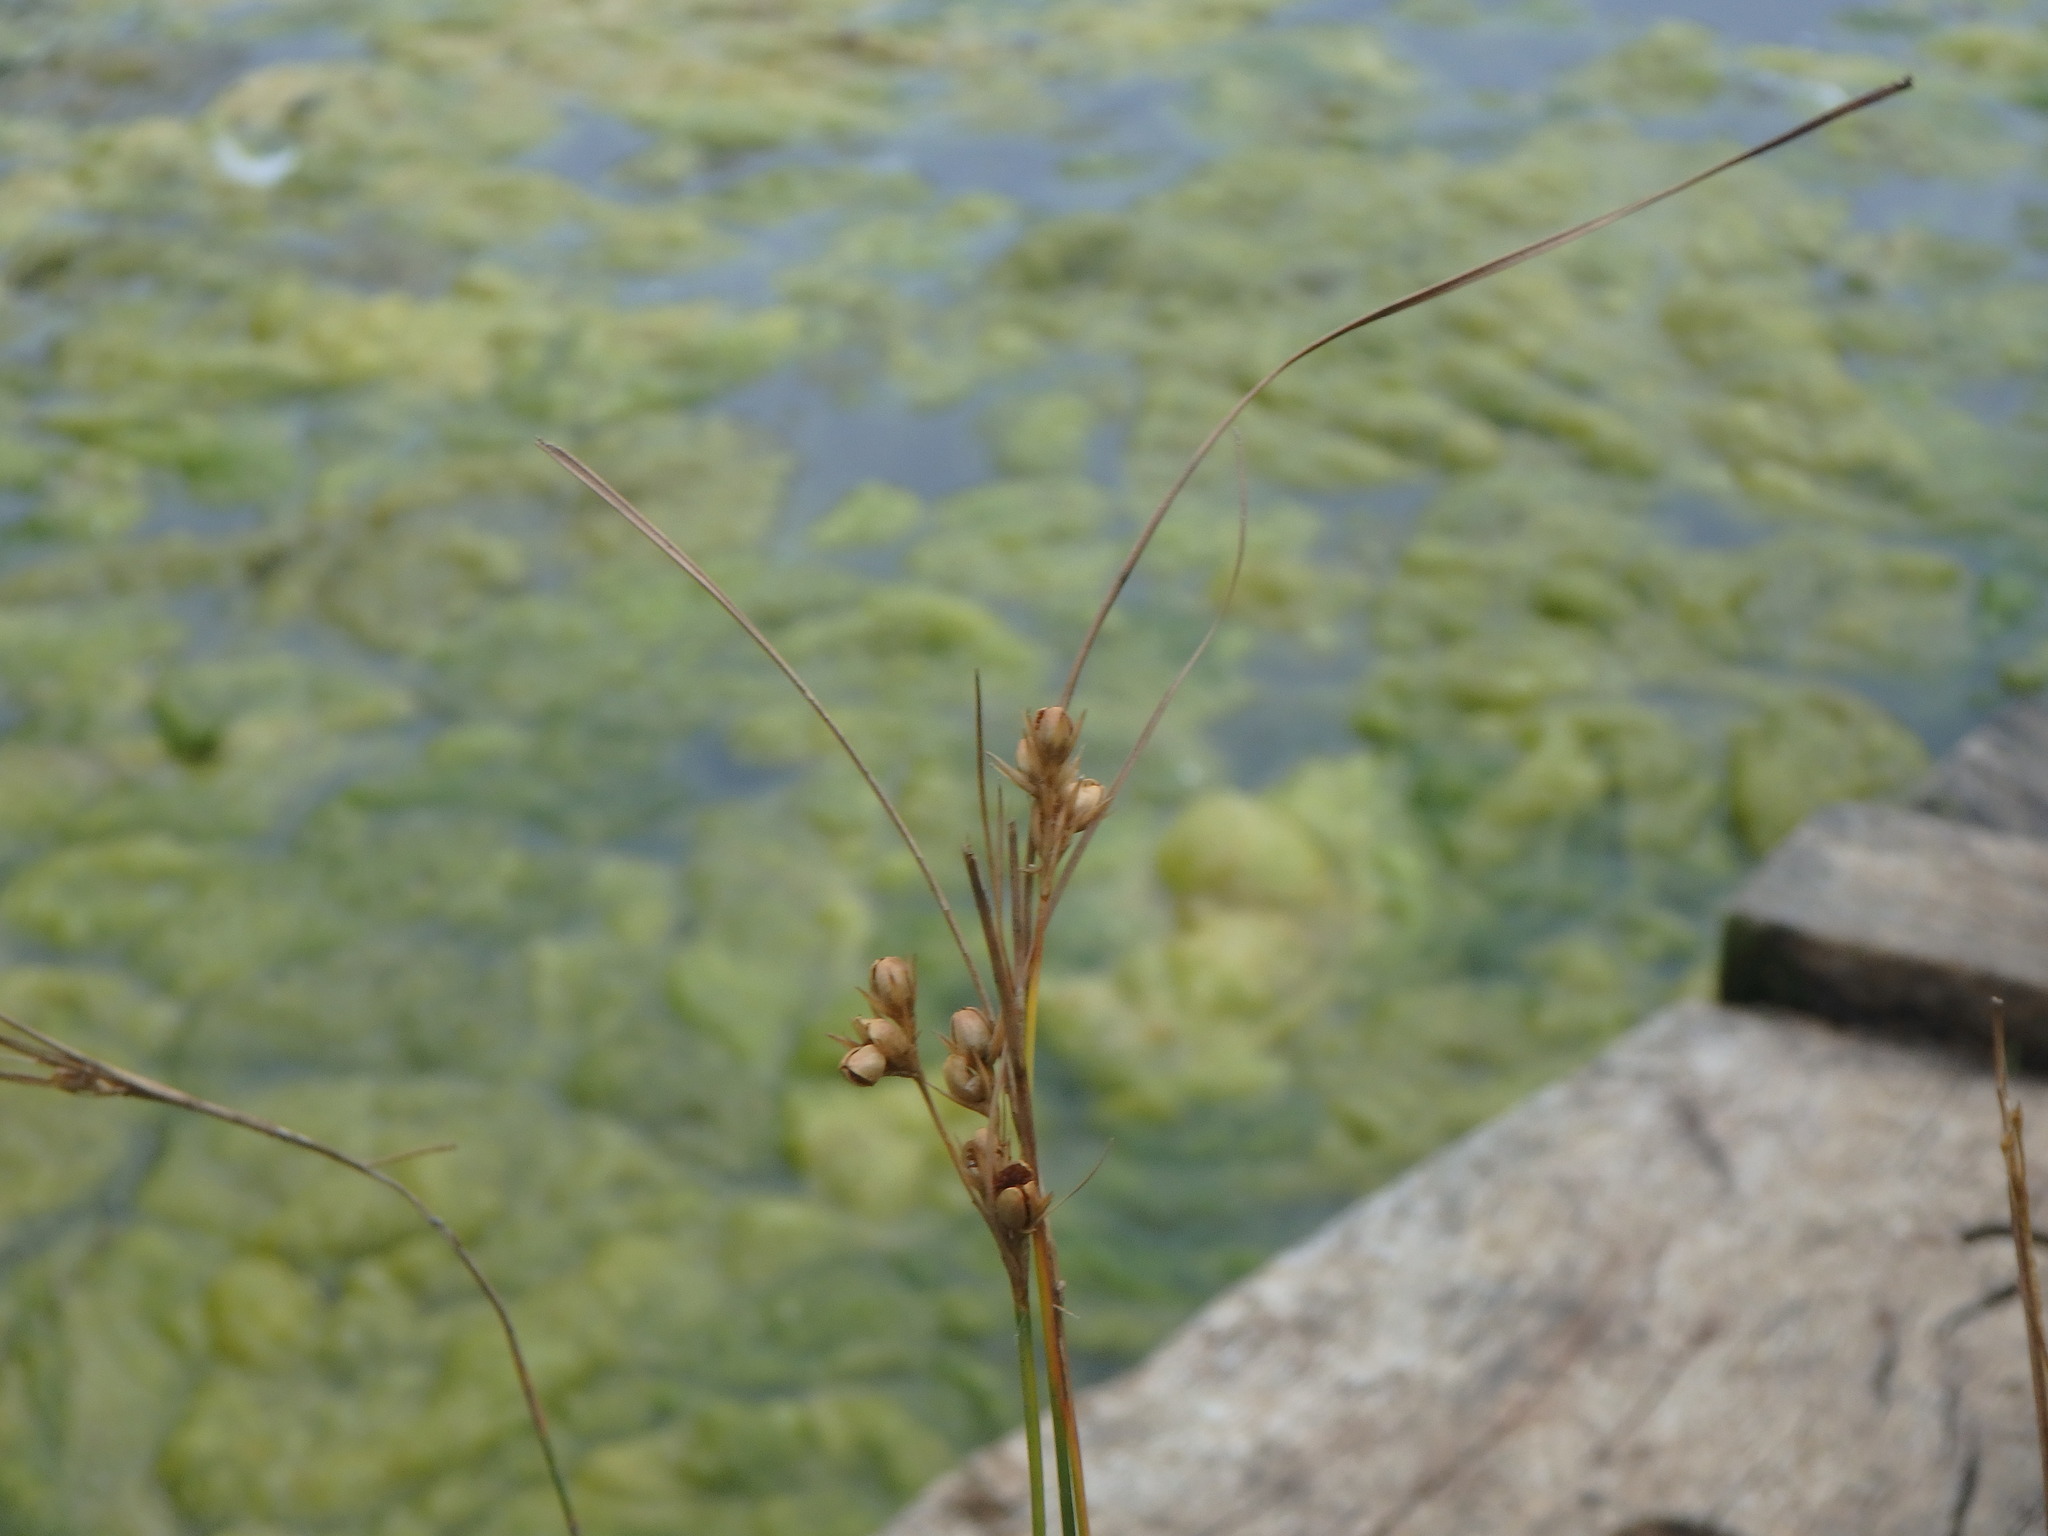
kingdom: Plantae
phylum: Tracheophyta
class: Liliopsida
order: Poales
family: Juncaceae
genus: Juncus
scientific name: Juncus tenuis
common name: Slender rush
